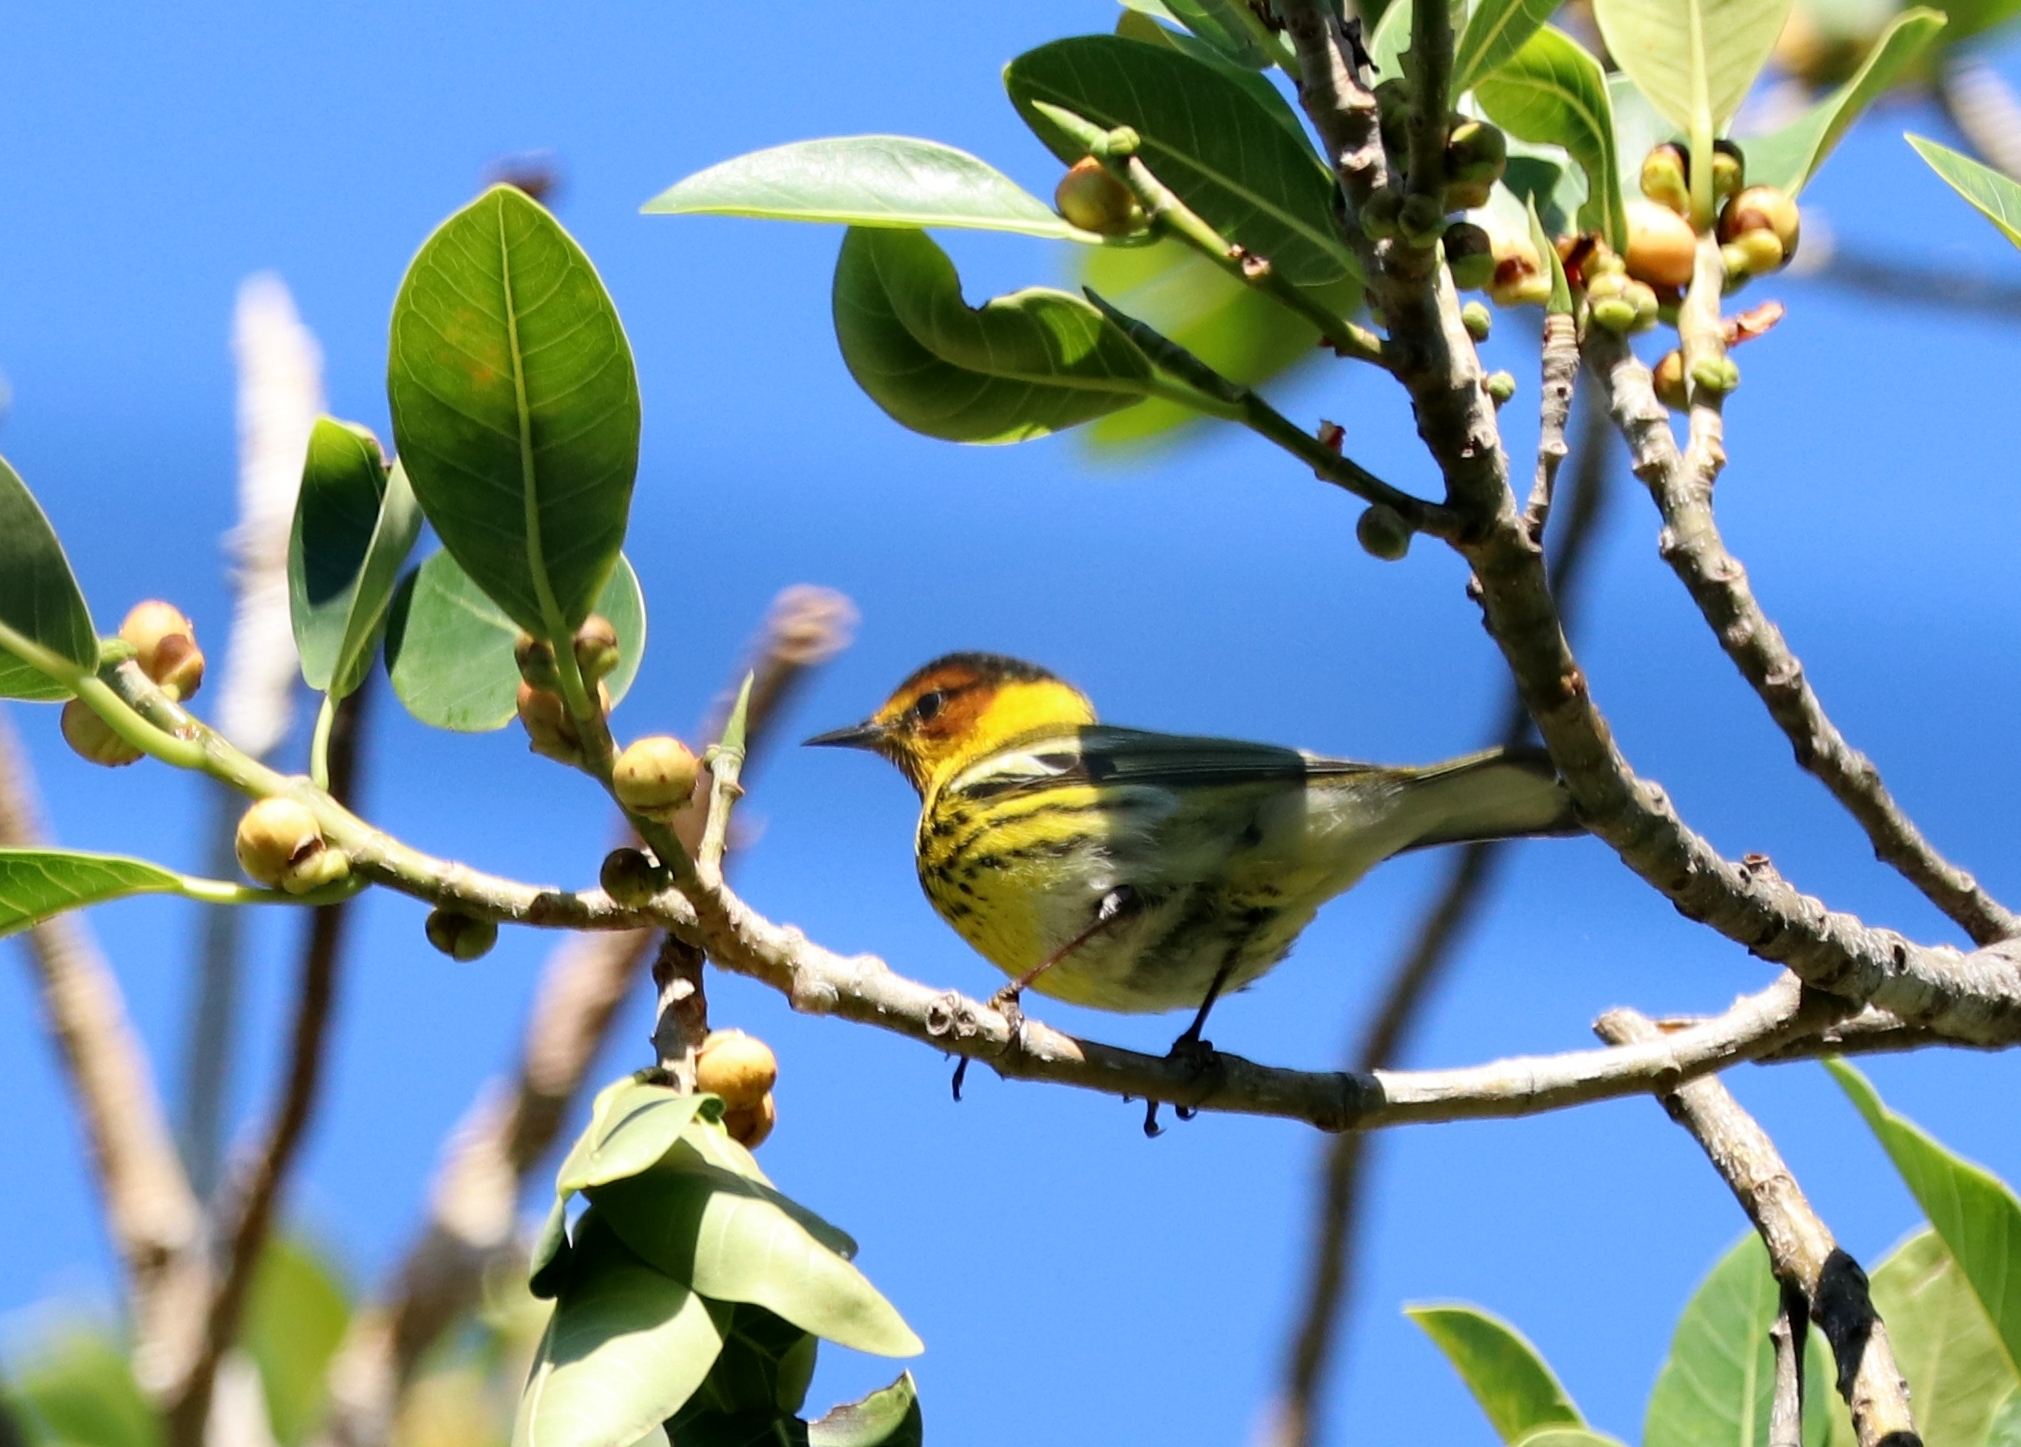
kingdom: Animalia
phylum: Chordata
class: Aves
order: Passeriformes
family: Parulidae
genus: Setophaga
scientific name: Setophaga tigrina
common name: Cape may warbler
